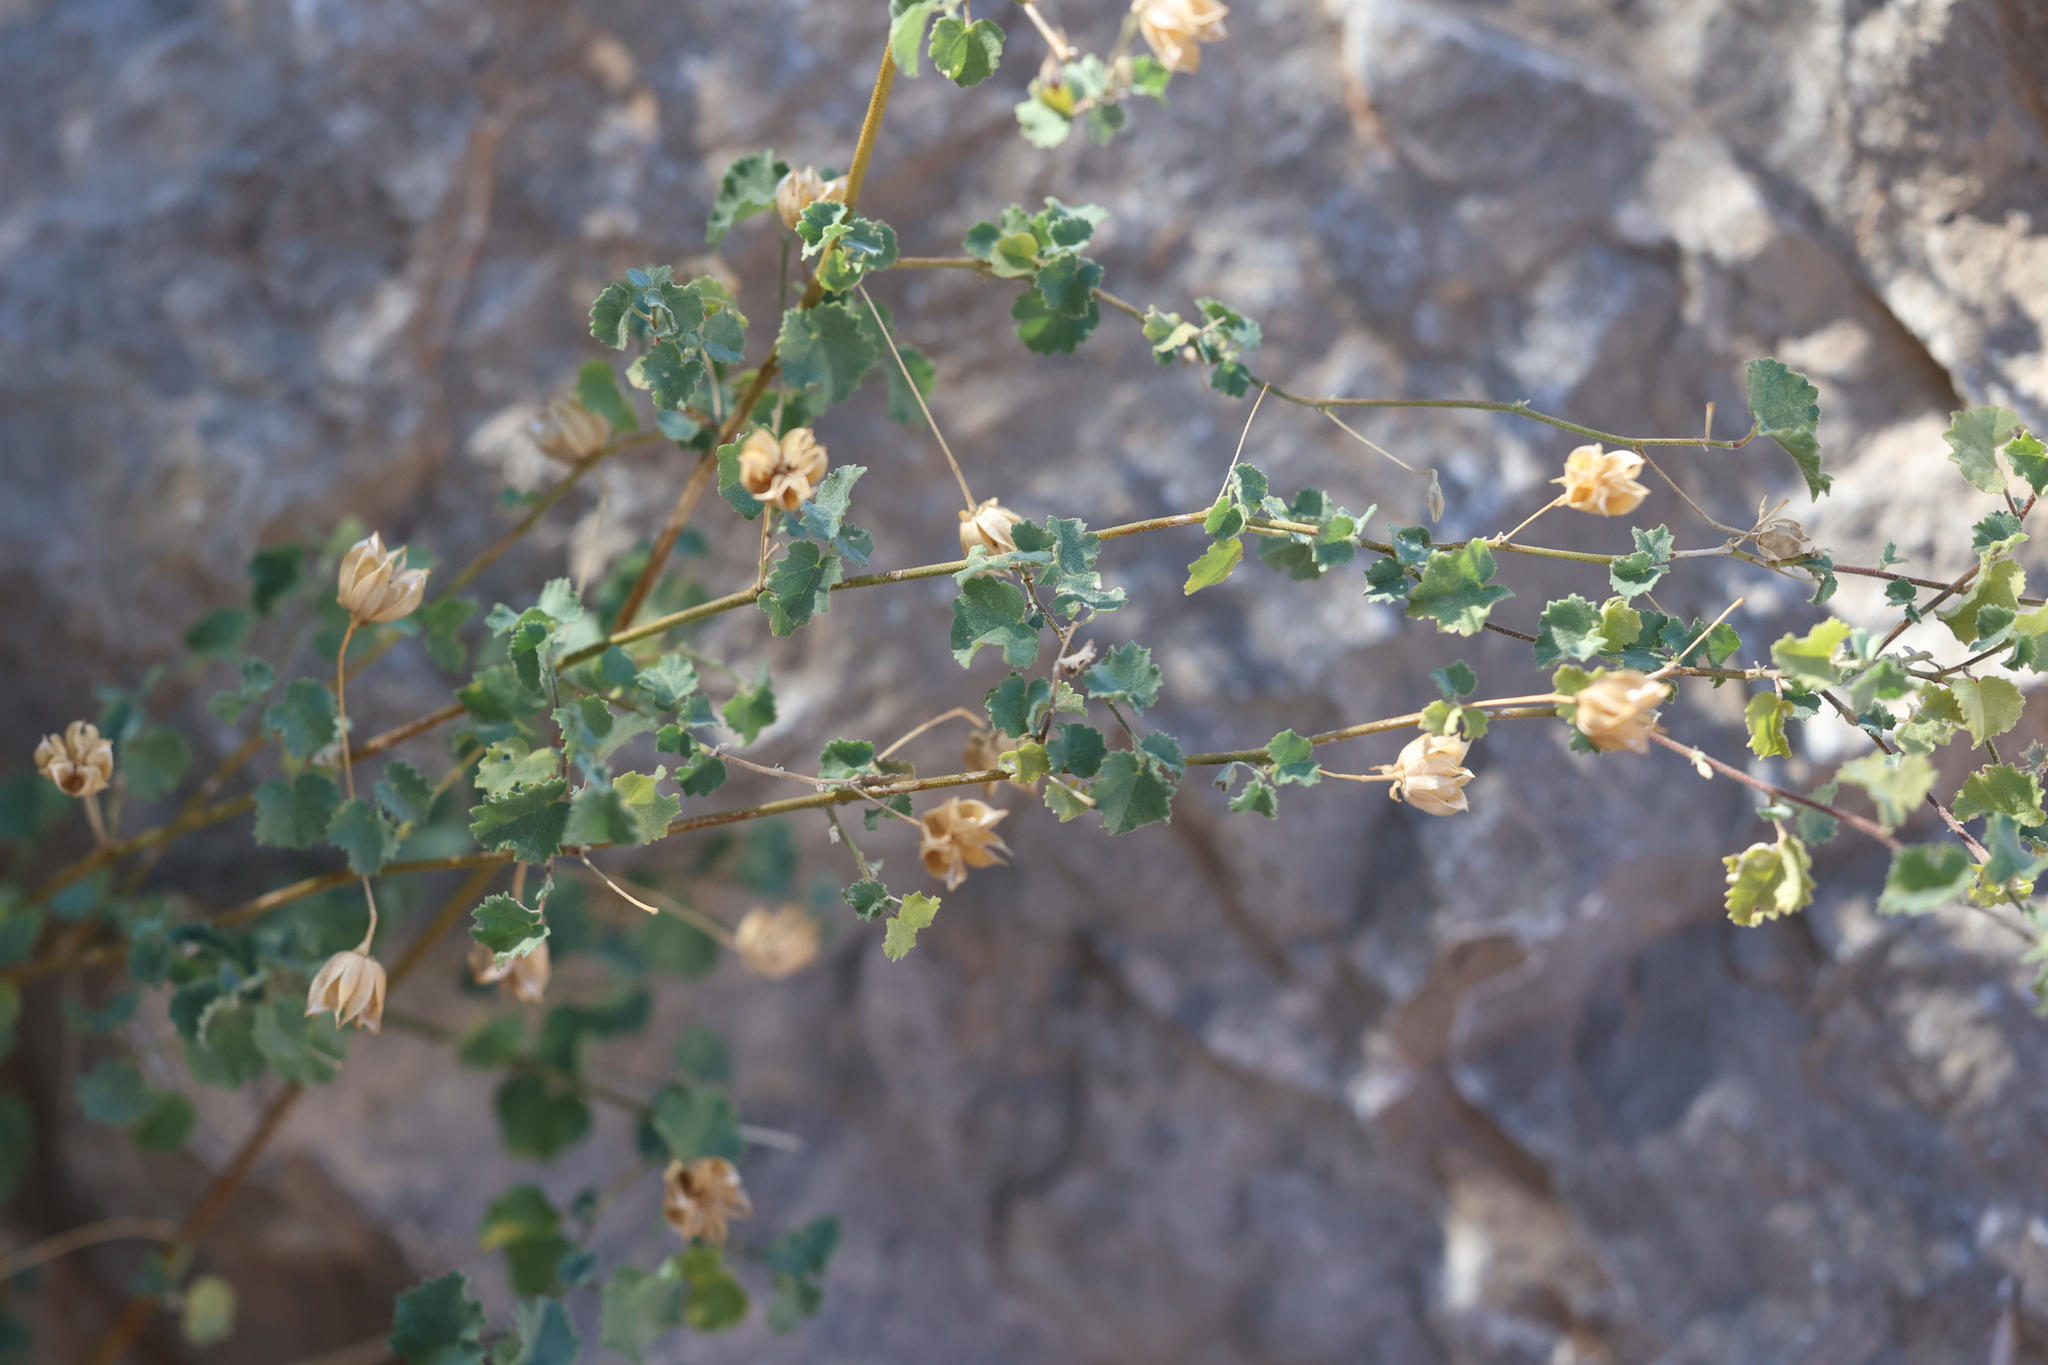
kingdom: Plantae
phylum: Tracheophyta
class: Magnoliopsida
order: Malvales
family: Malvaceae
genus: Abutilon
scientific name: Abutilon parvulum
